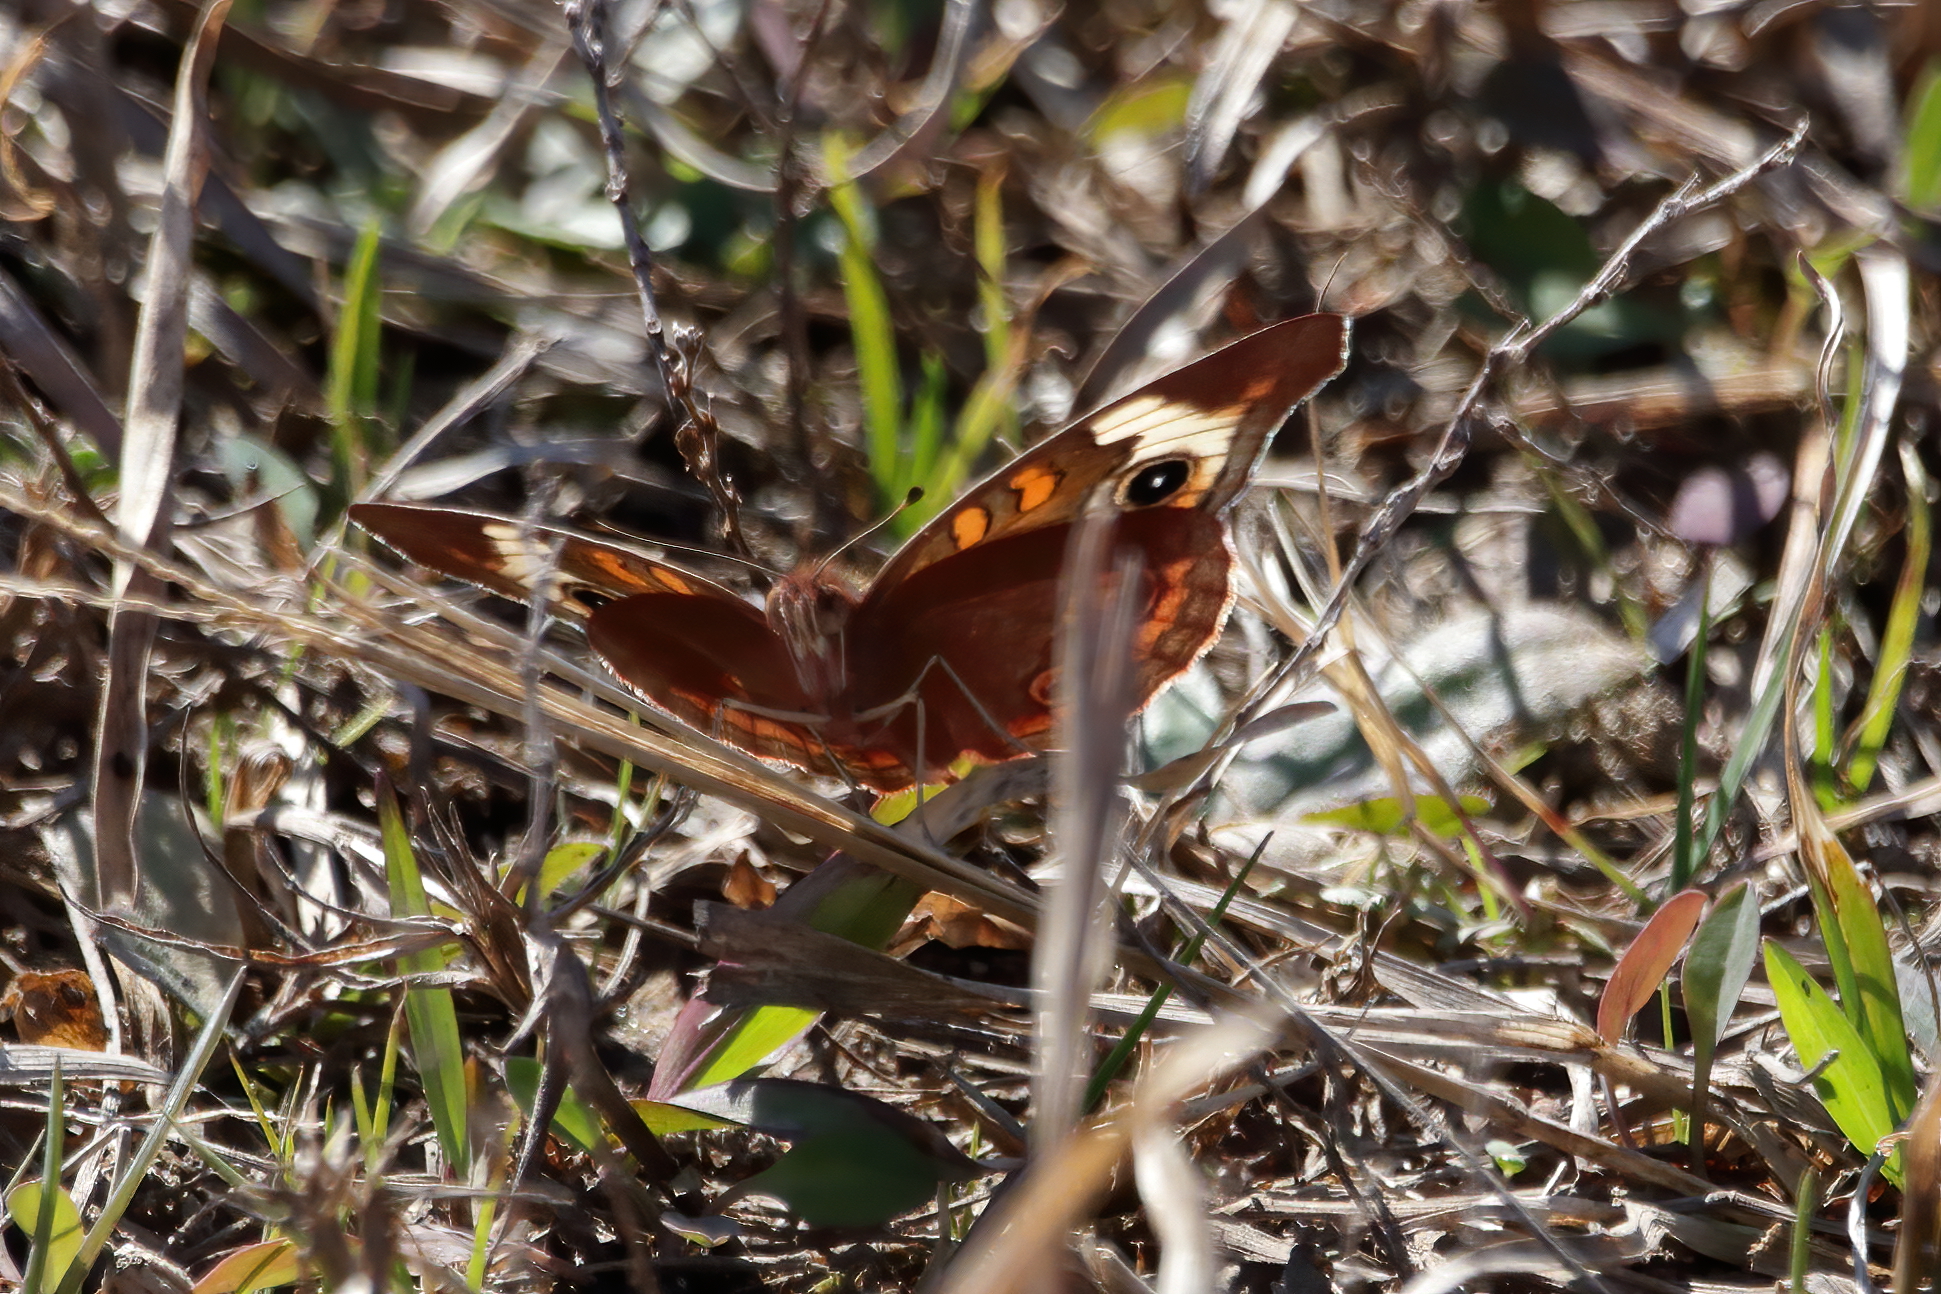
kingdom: Animalia
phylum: Arthropoda
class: Insecta
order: Lepidoptera
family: Nymphalidae
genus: Junonia
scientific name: Junonia coenia
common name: Common buckeye
